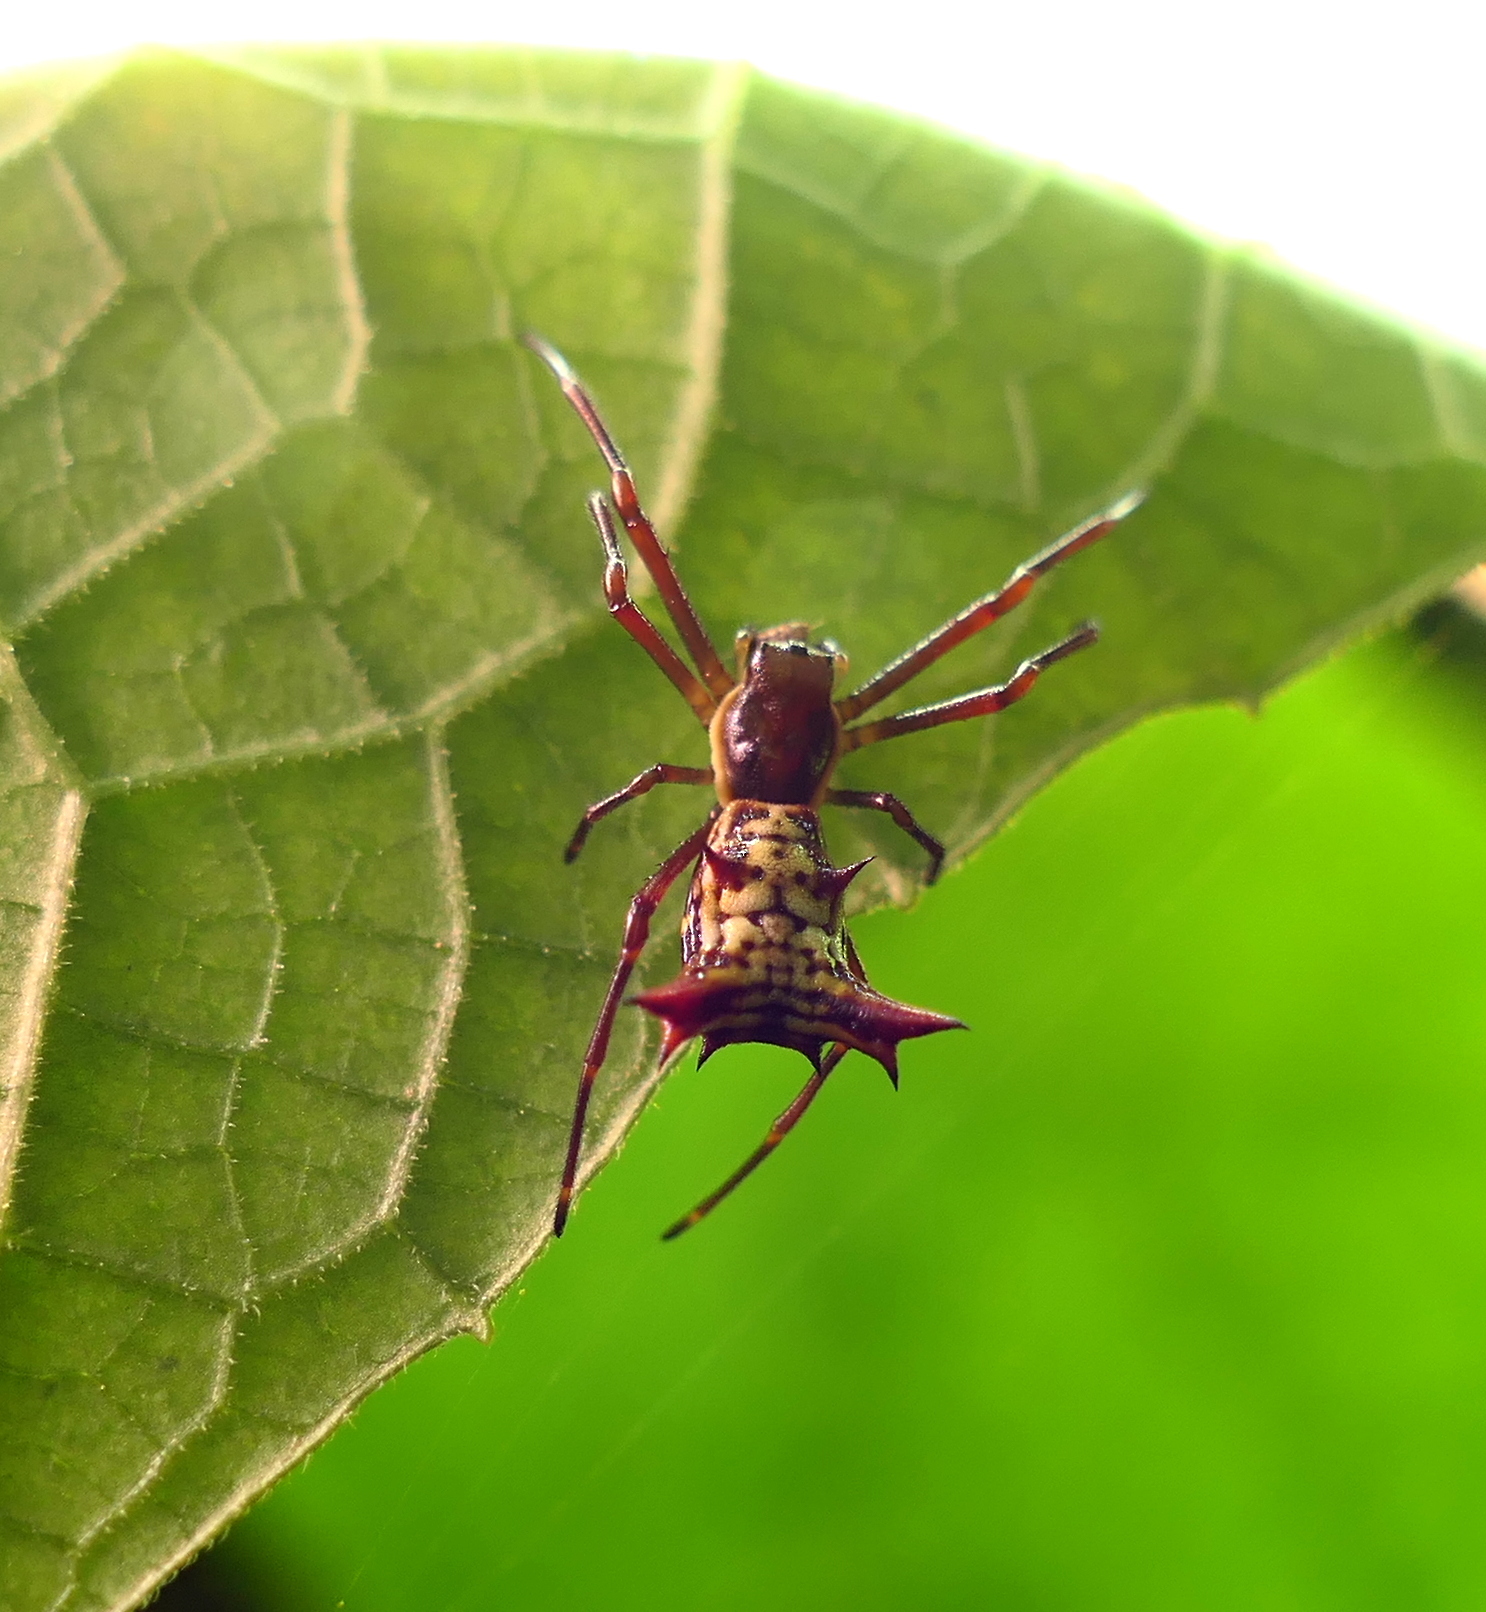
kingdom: Animalia
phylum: Arthropoda
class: Arachnida
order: Araneae
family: Araneidae
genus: Micrathena
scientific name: Micrathena fissispina
